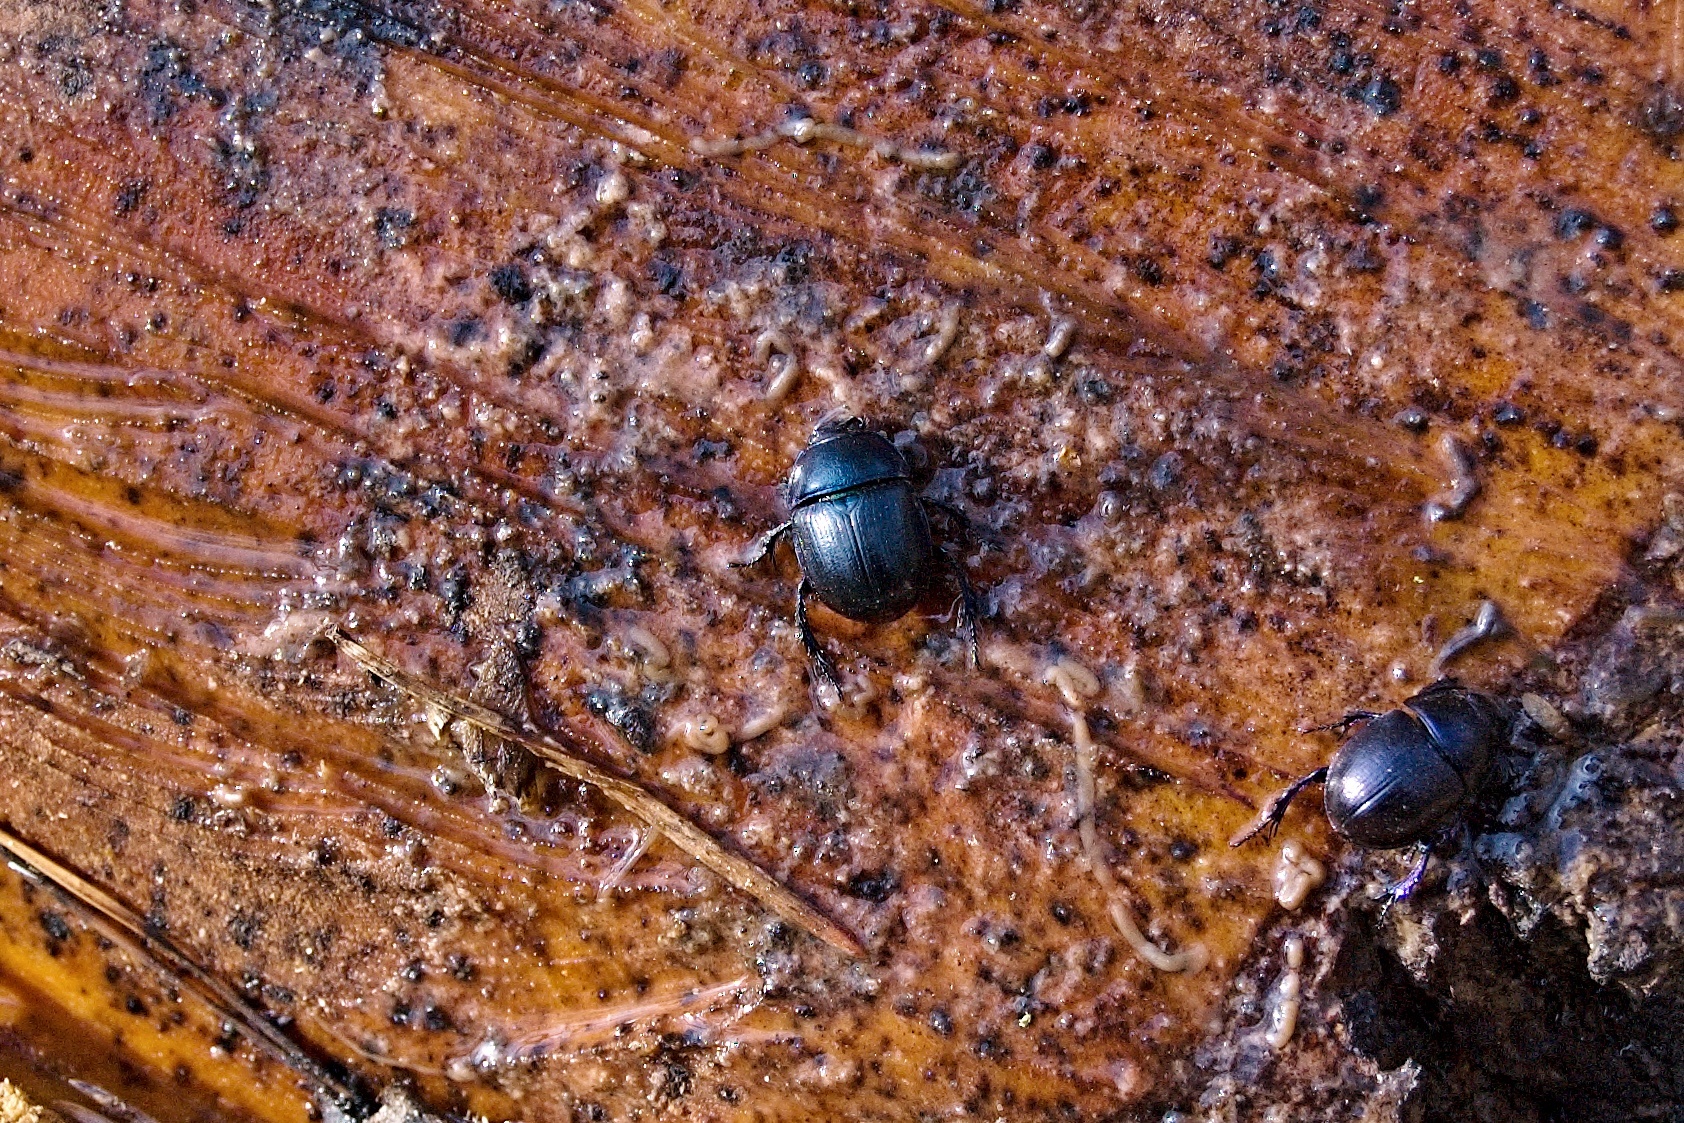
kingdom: Animalia
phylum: Arthropoda
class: Insecta
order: Coleoptera
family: Geotrupidae
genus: Anoplotrupes
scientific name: Anoplotrupes stercorosus
